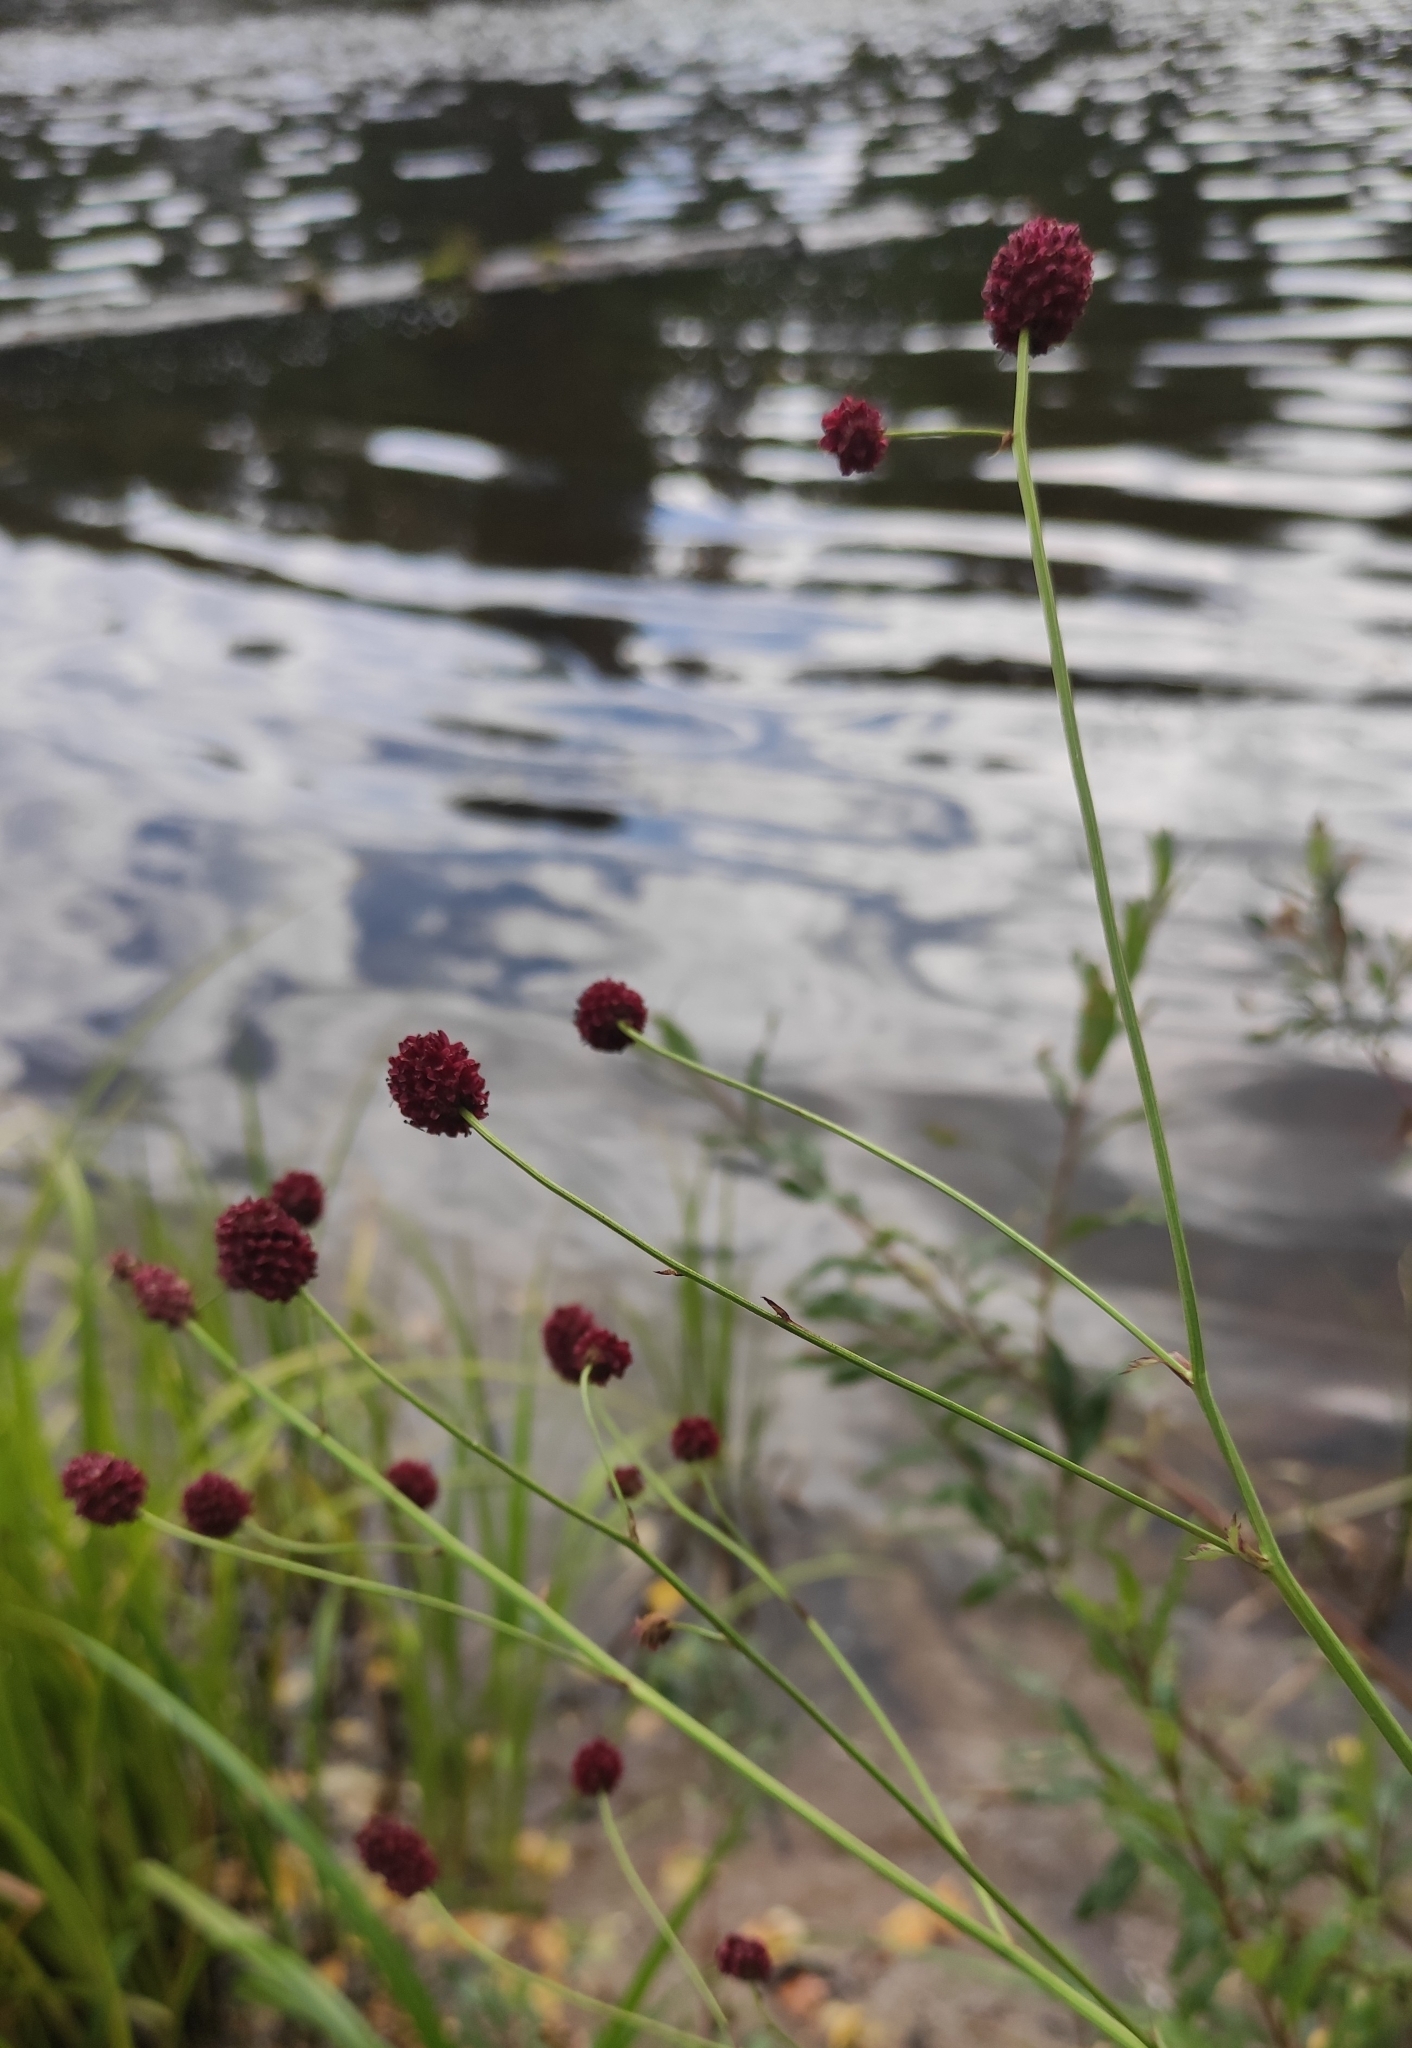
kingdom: Plantae
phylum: Tracheophyta
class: Magnoliopsida
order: Rosales
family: Rosaceae
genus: Sanguisorba
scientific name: Sanguisorba officinalis
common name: Great burnet
